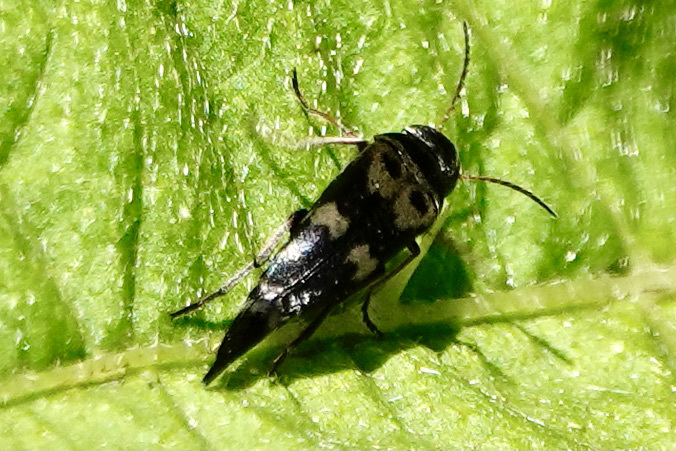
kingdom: Animalia
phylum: Arthropoda
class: Insecta
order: Coleoptera
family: Mordellidae
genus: Glipa
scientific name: Glipa oculata
